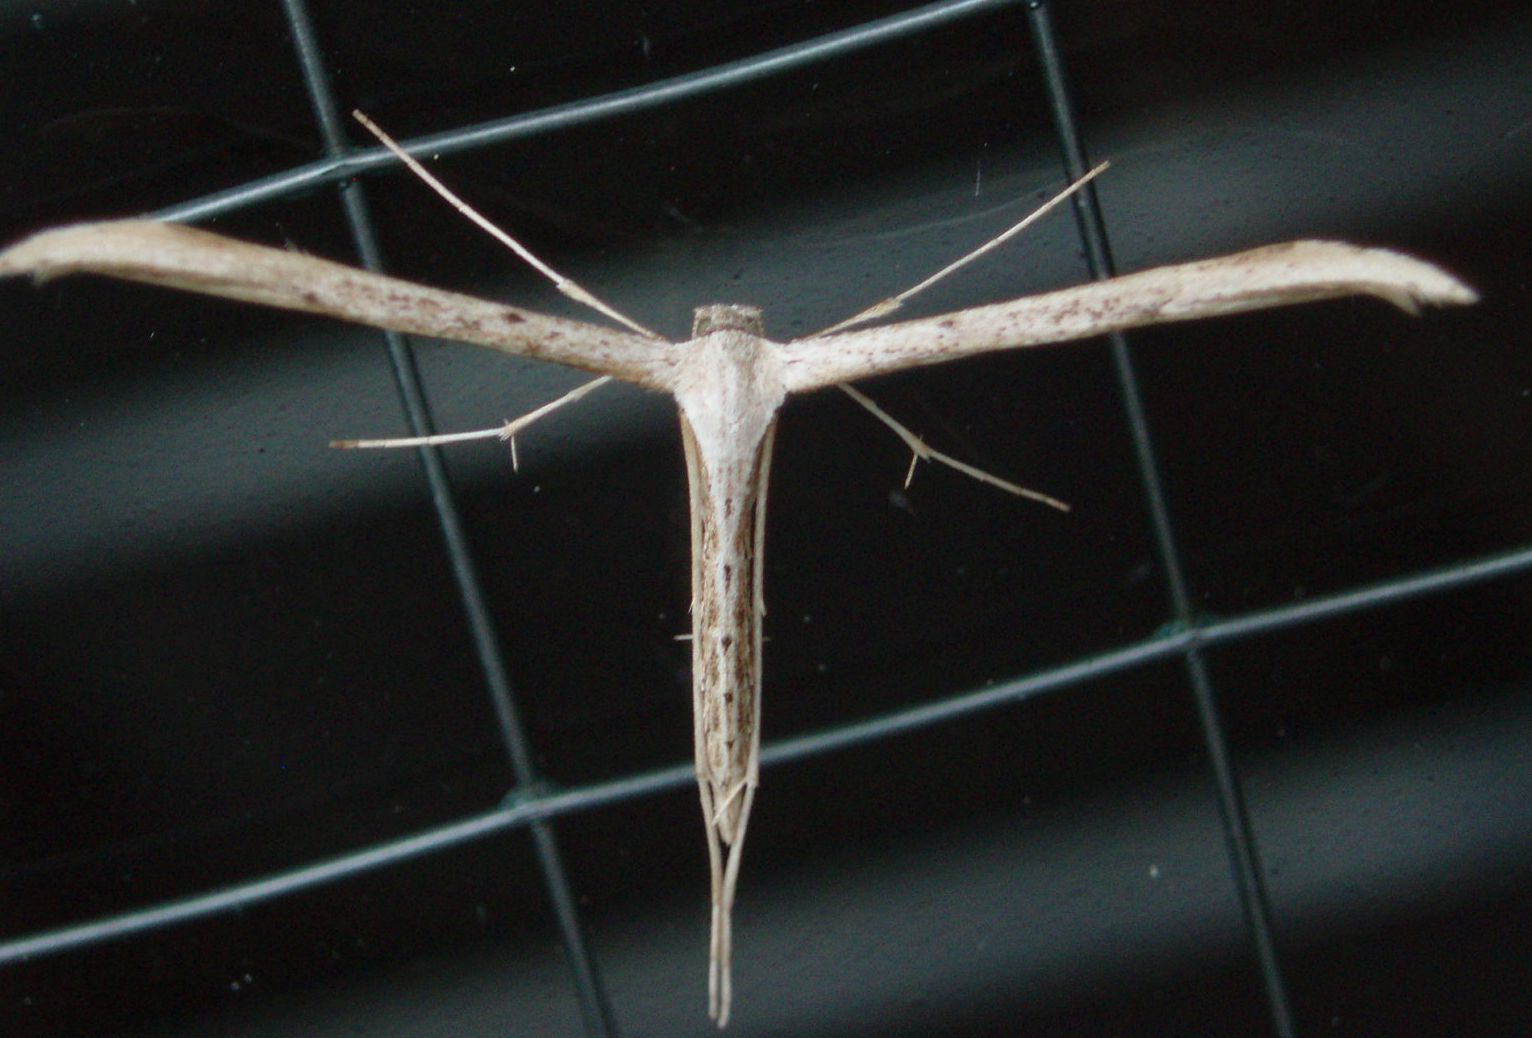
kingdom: Animalia
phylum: Arthropoda
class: Insecta
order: Lepidoptera
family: Pterophoridae
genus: Emmelina
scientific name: Emmelina monodactyla
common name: Common plume
